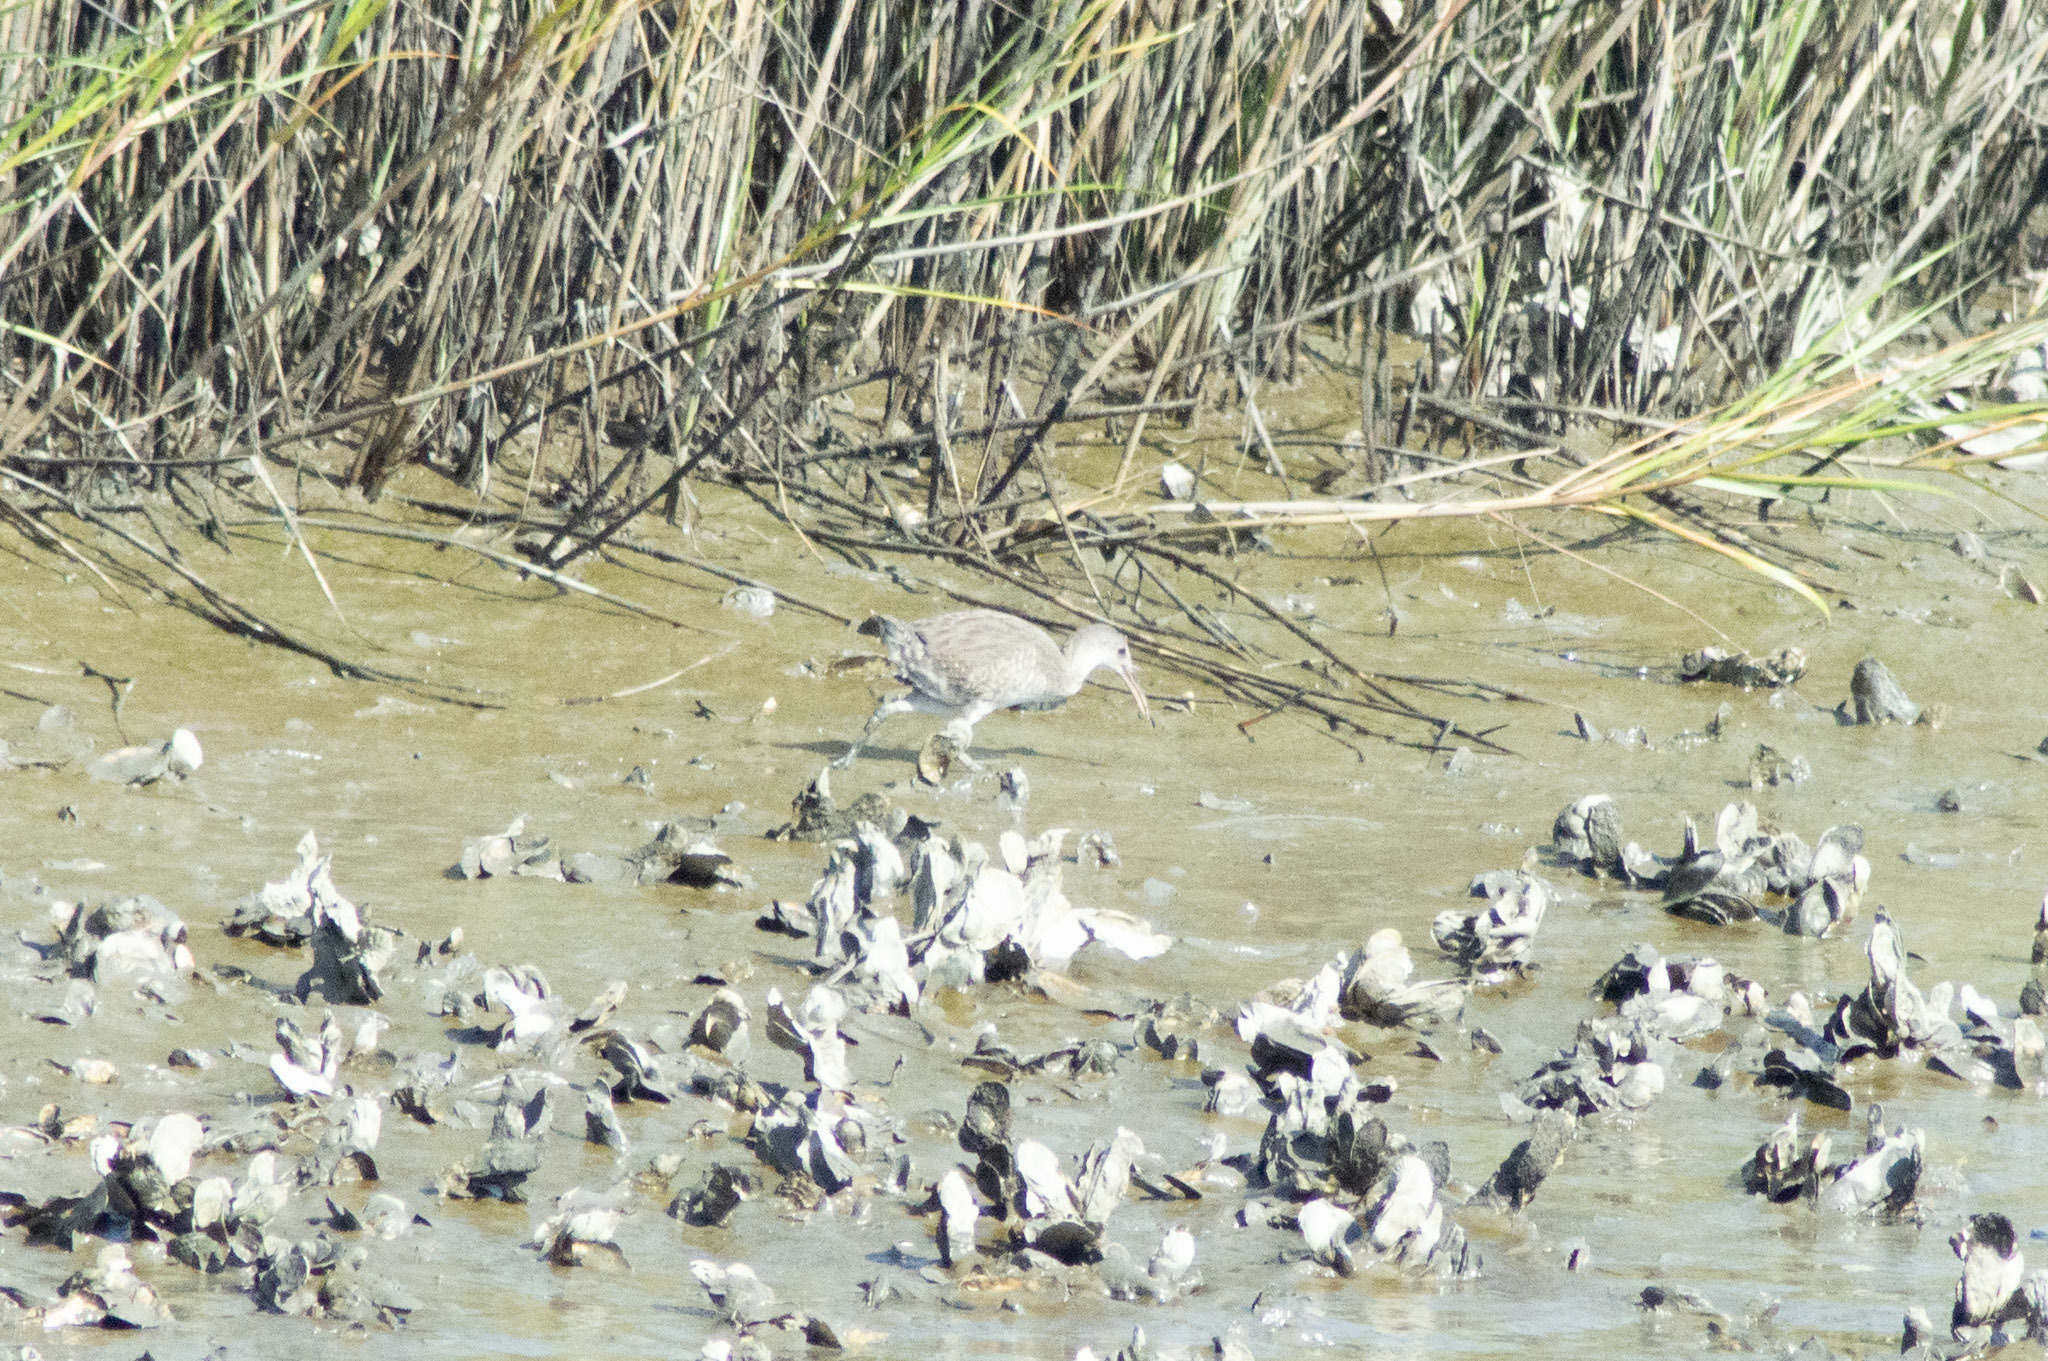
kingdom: Animalia
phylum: Chordata
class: Aves
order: Gruiformes
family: Rallidae
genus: Rallus
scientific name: Rallus crepitans
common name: Clapper rail
